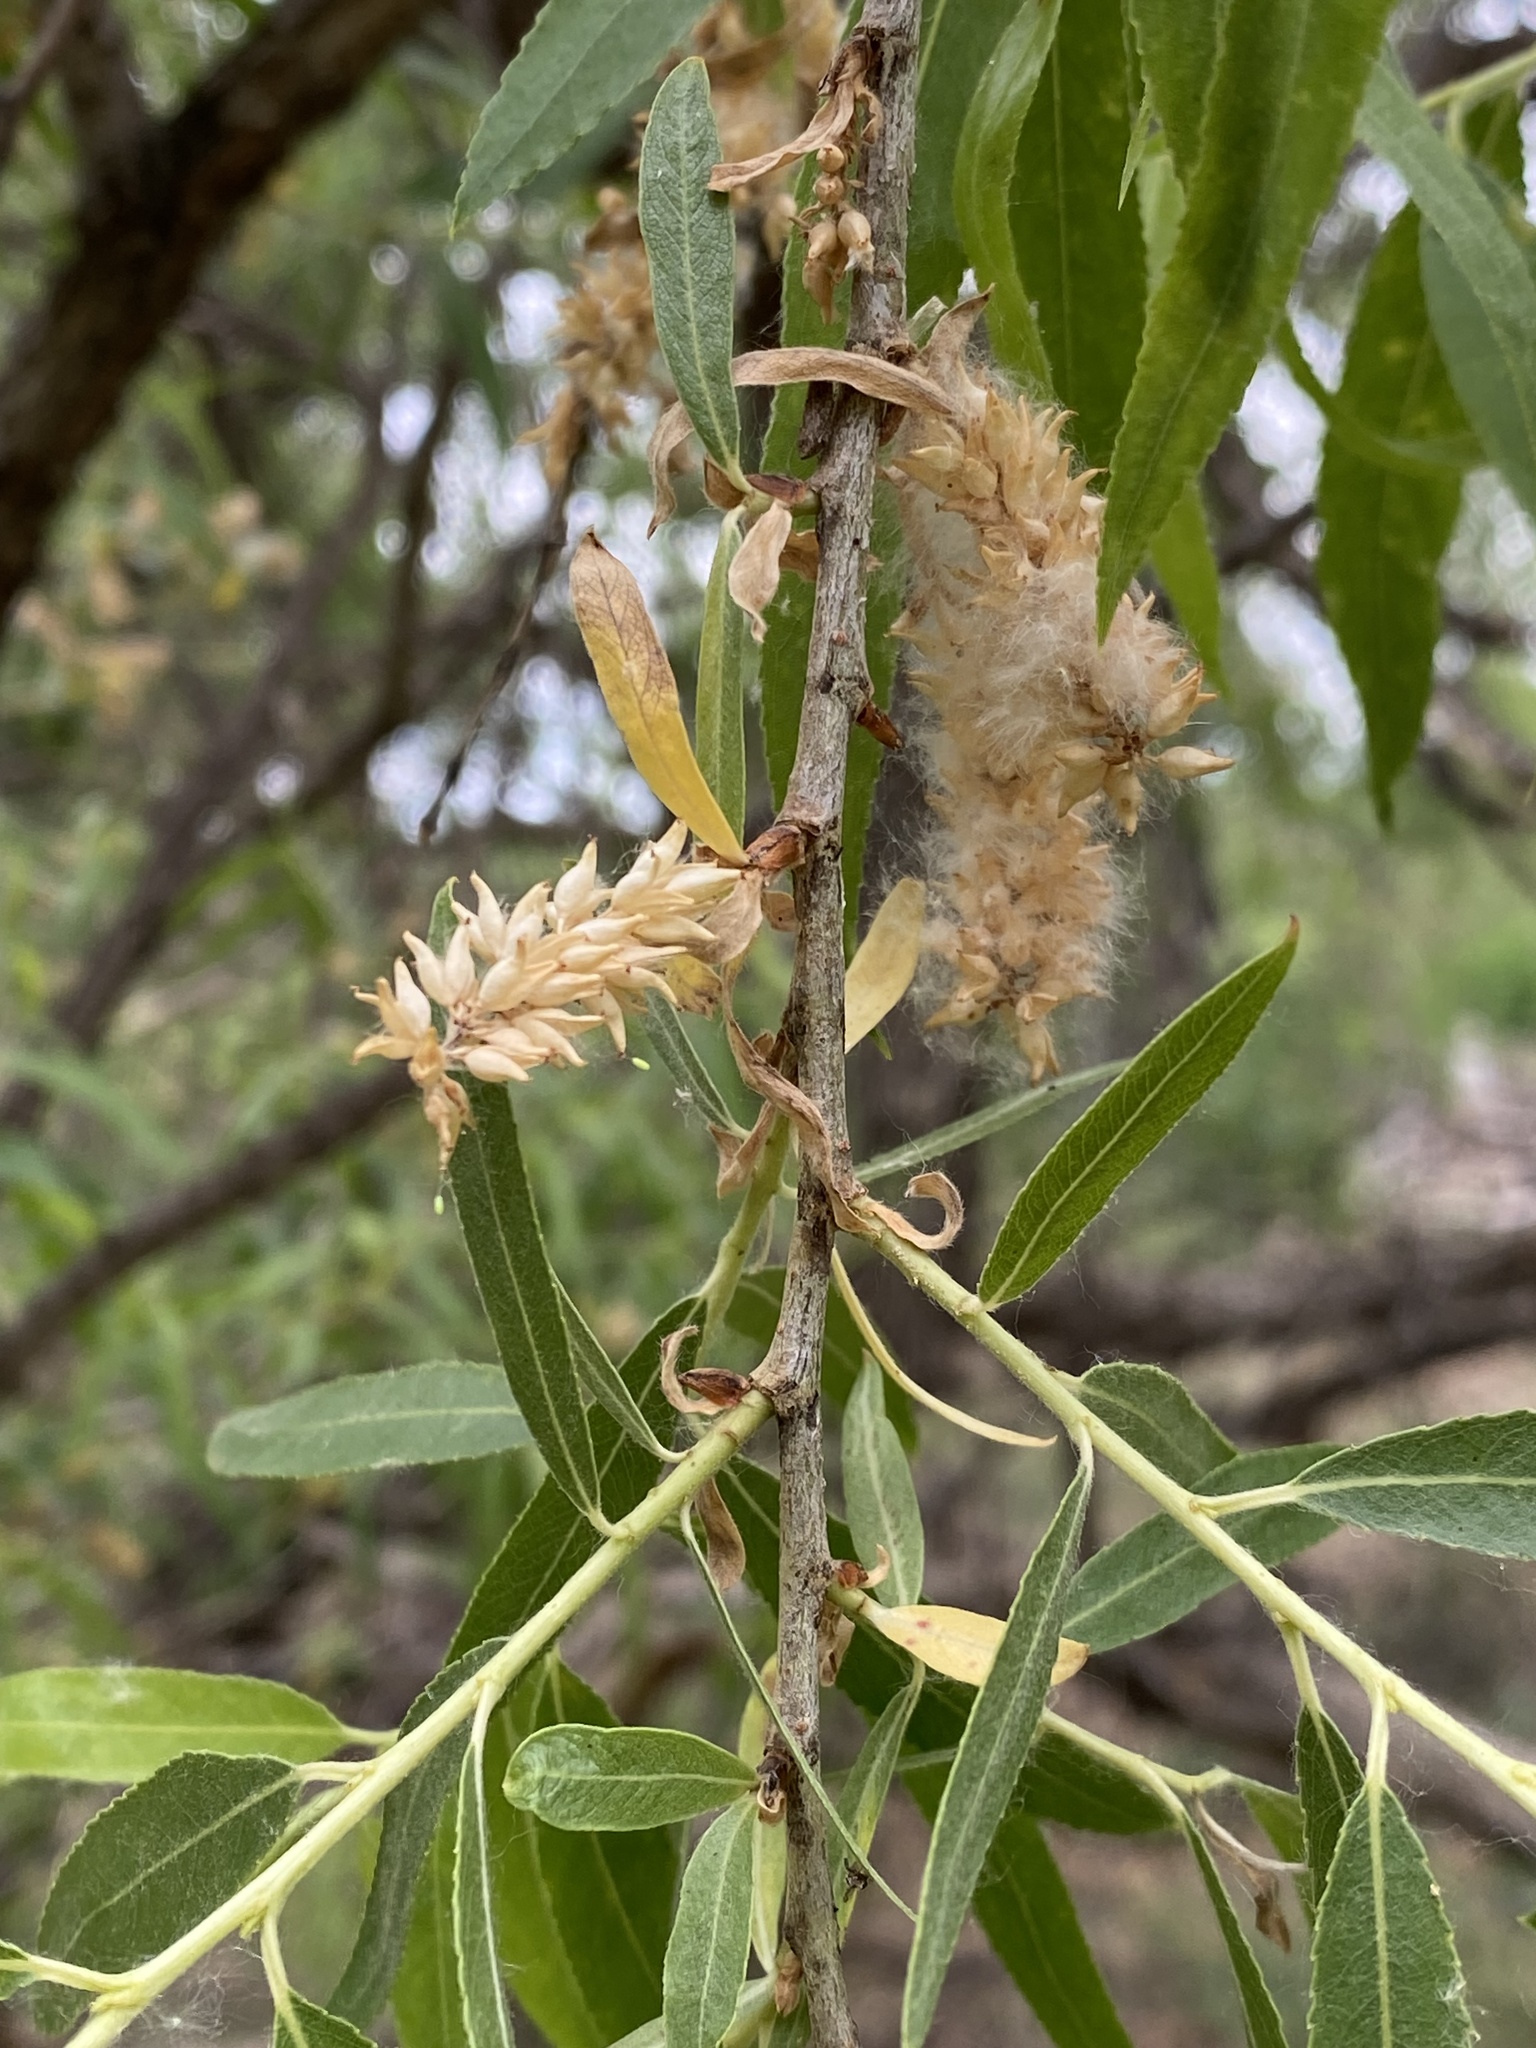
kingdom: Plantae
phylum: Tracheophyta
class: Magnoliopsida
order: Malpighiales
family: Salicaceae
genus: Salix
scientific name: Salix gooddingii
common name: Goodding's willow
